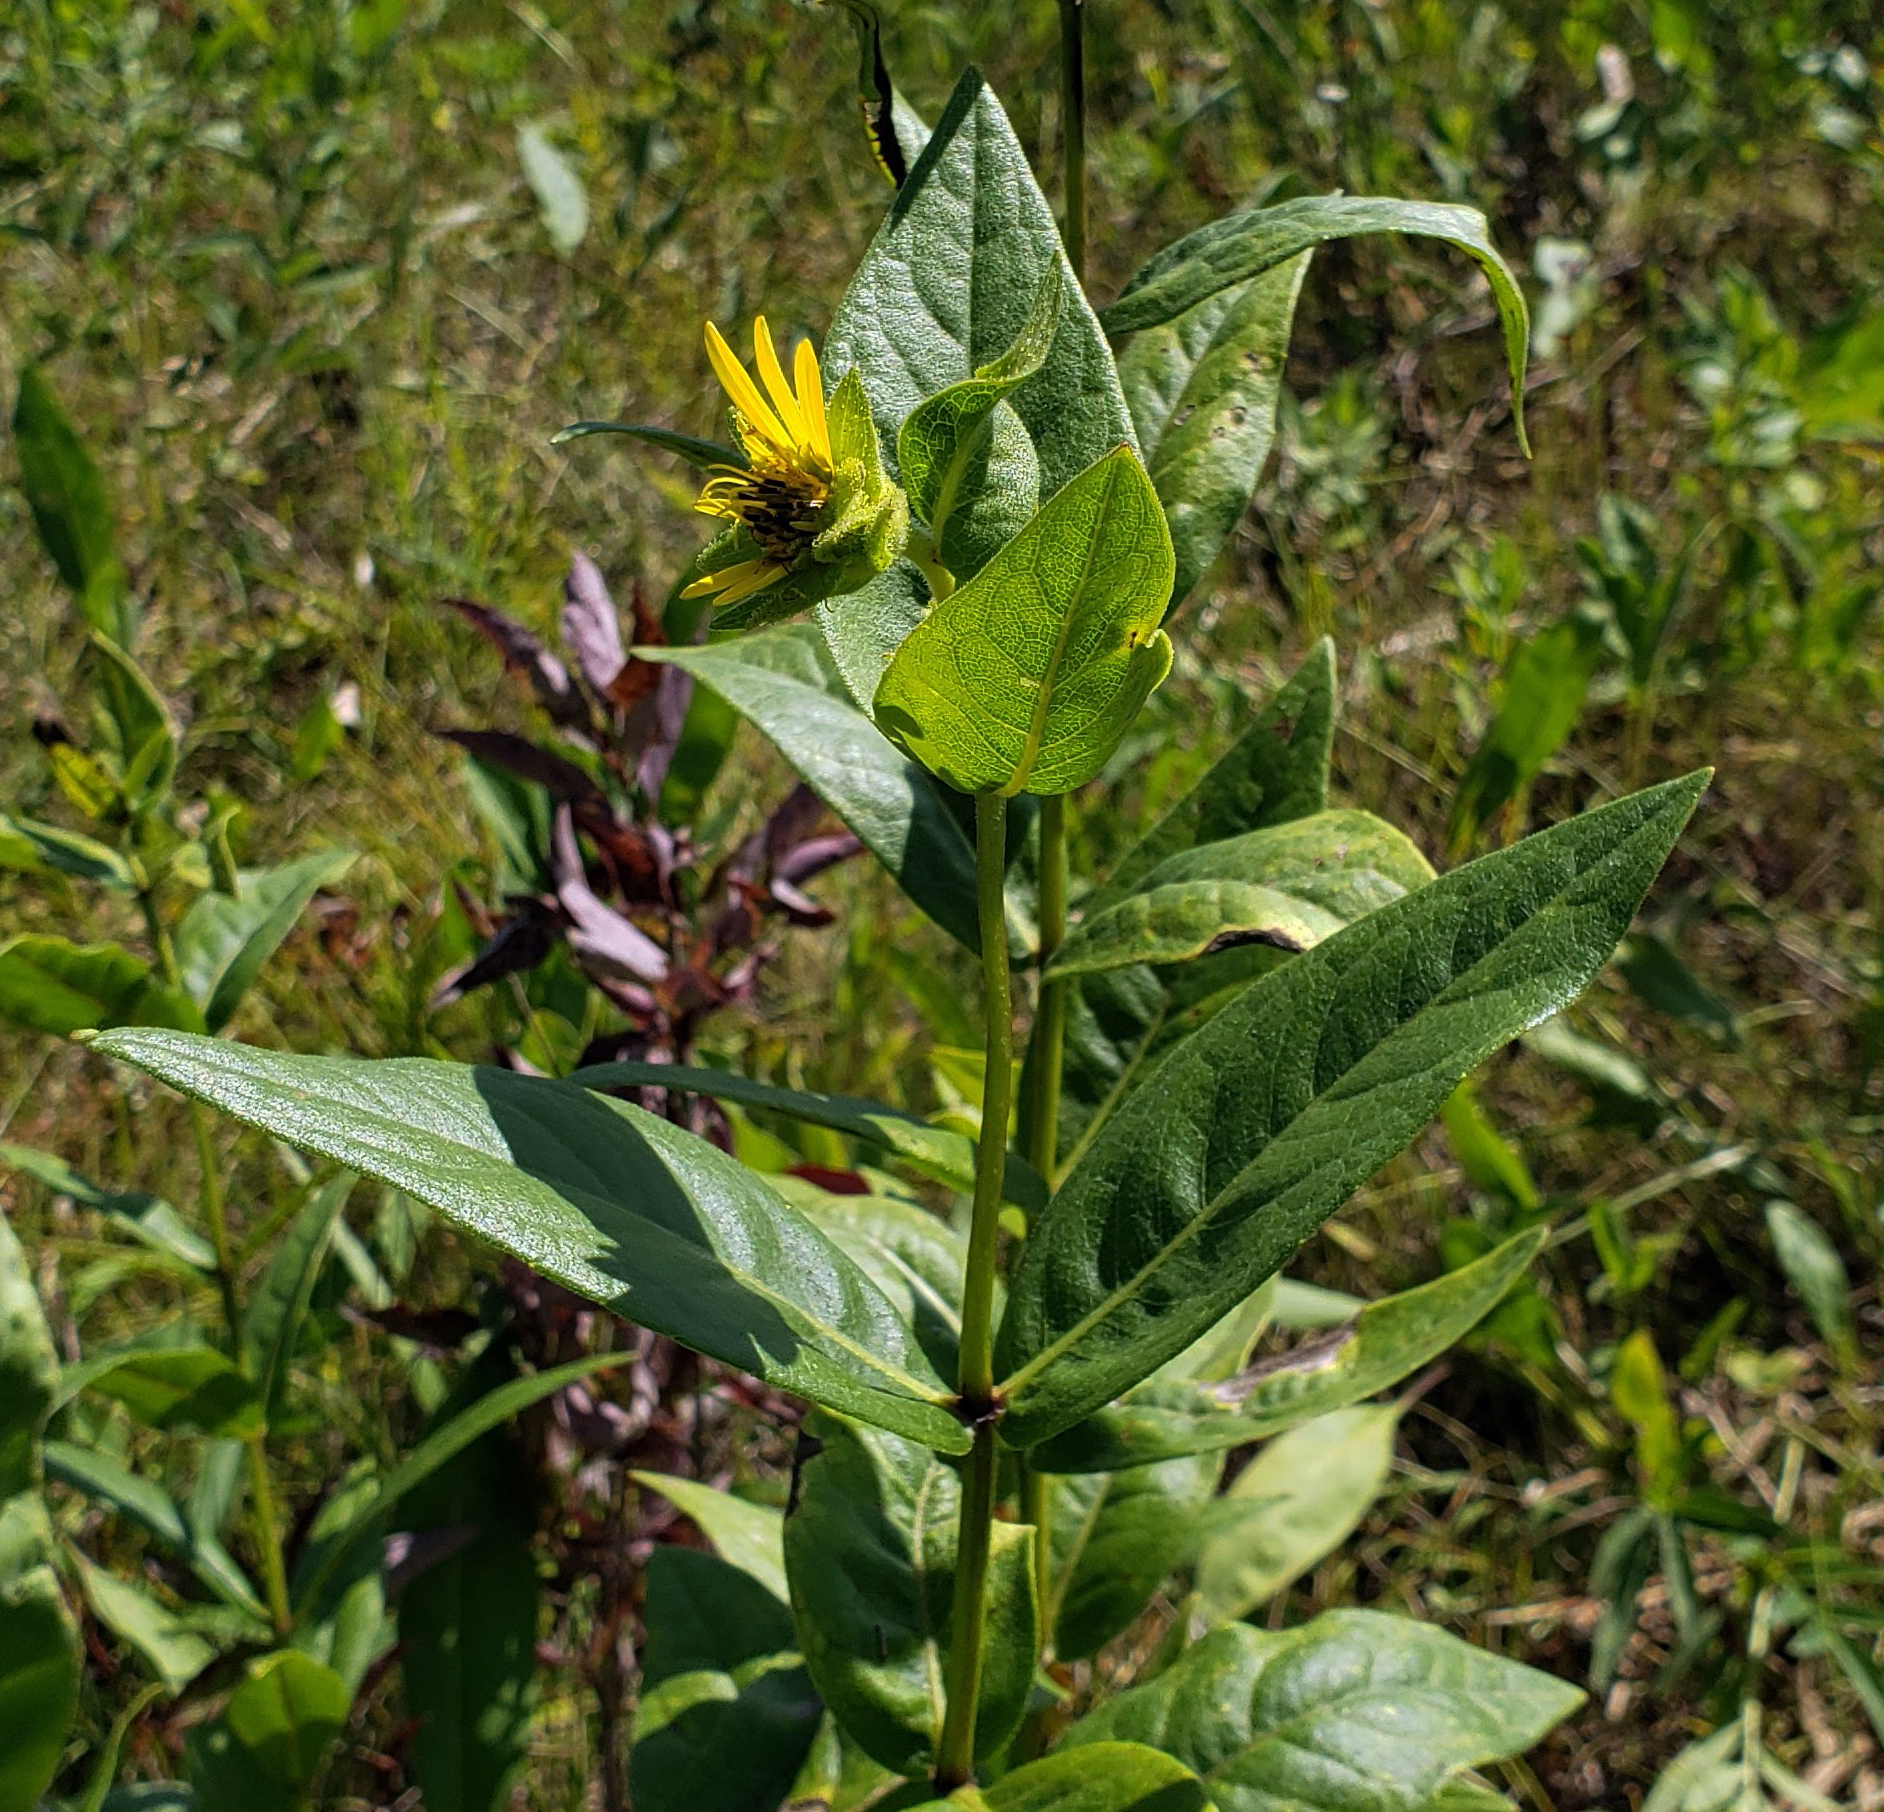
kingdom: Plantae
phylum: Tracheophyta
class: Magnoliopsida
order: Asterales
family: Asteraceae
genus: Silphium
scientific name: Silphium integrifolium
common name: Whole-leaf rosinweed
